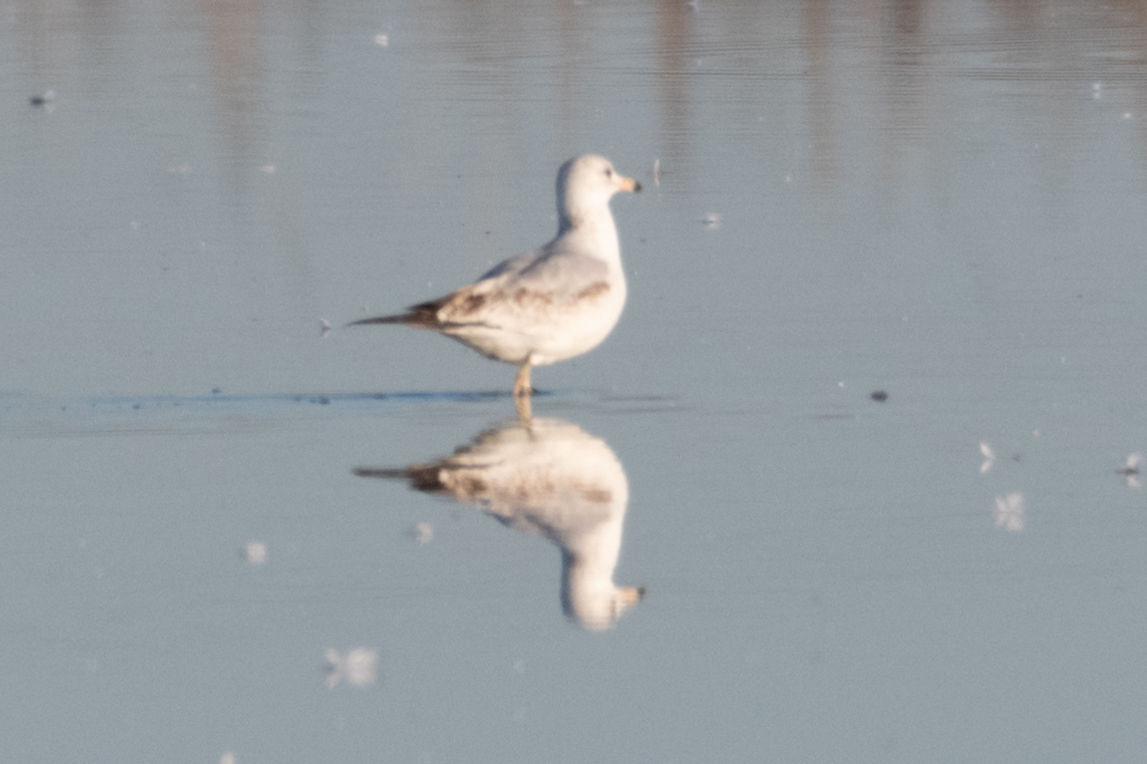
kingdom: Animalia
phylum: Chordata
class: Aves
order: Charadriiformes
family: Laridae
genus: Larus
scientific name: Larus delawarensis
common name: Ring-billed gull
